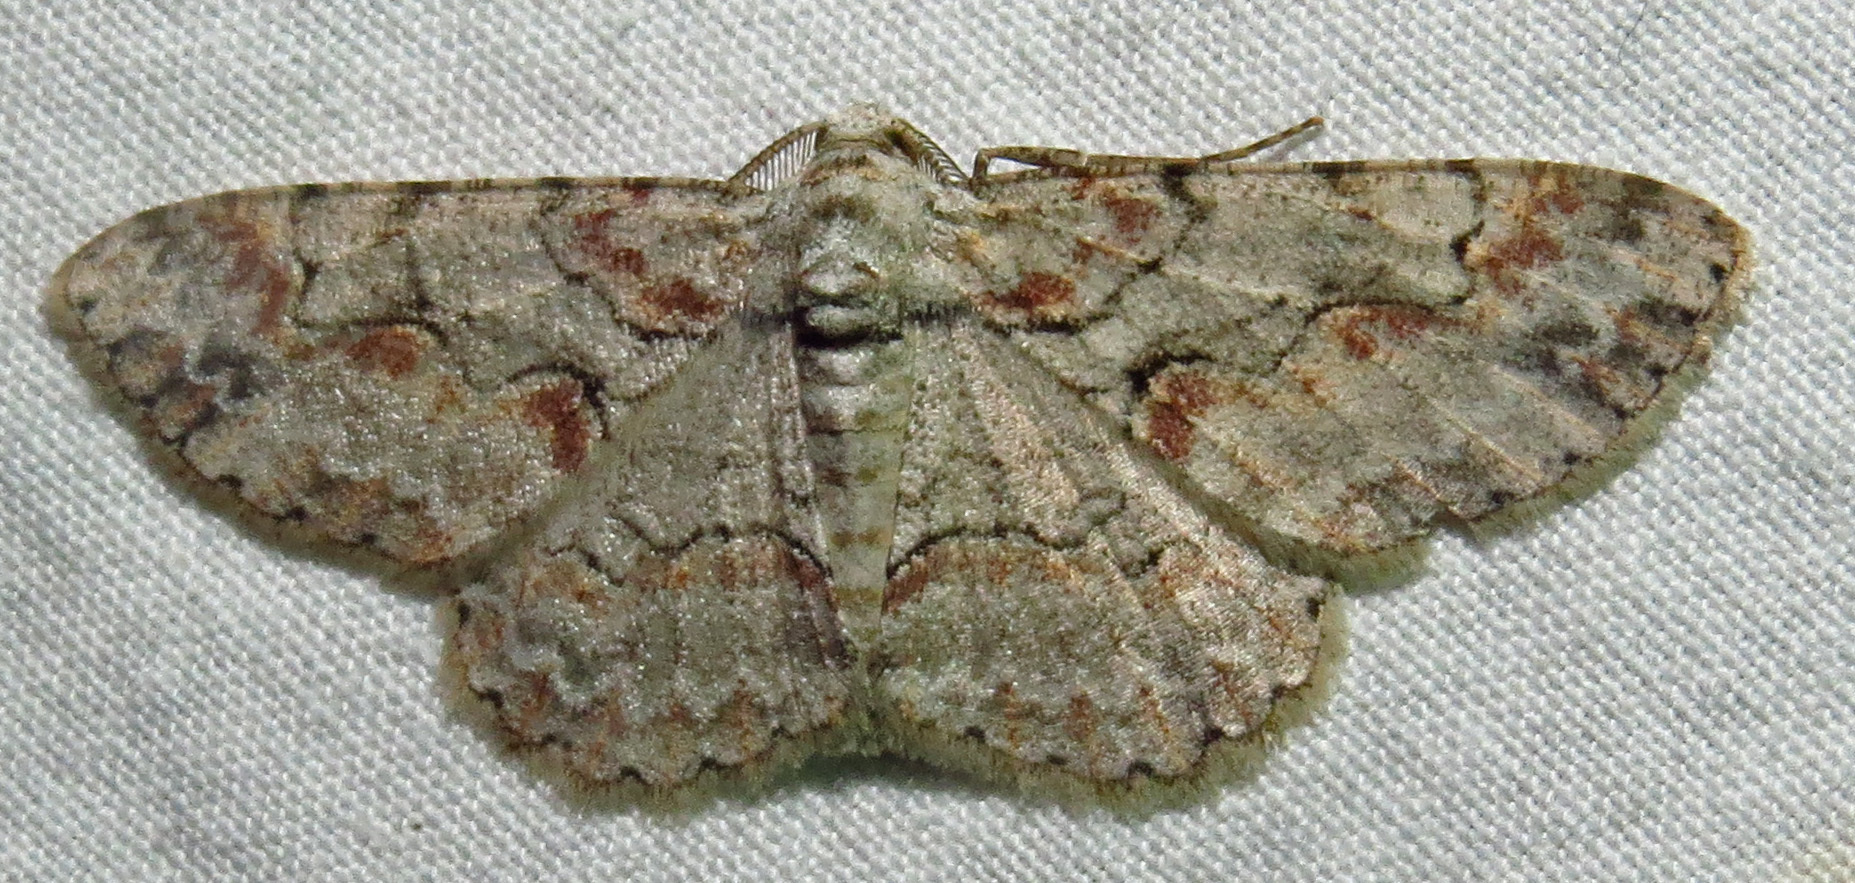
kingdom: Animalia
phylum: Arthropoda
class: Insecta
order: Lepidoptera
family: Geometridae
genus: Iridopsis
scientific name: Iridopsis defectaria
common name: Brown-shaded gray
